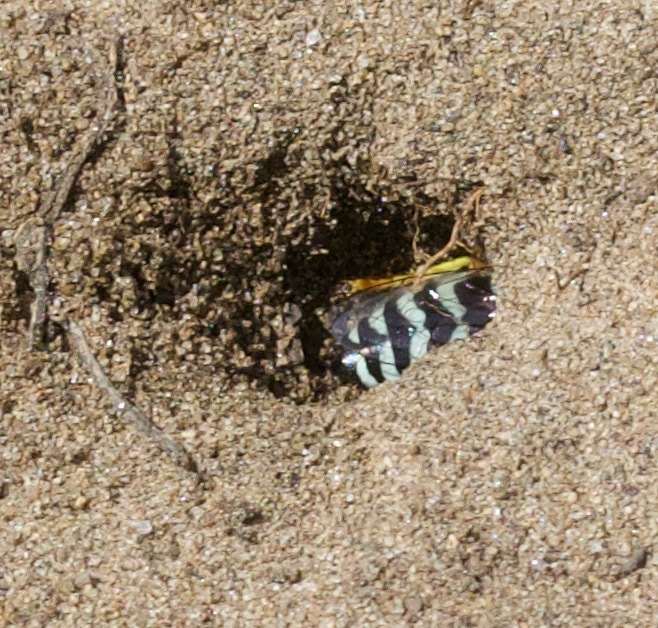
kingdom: Animalia
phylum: Arthropoda
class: Insecta
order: Hymenoptera
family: Crabronidae
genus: Bembix
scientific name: Bembix americana
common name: American sand wasp
